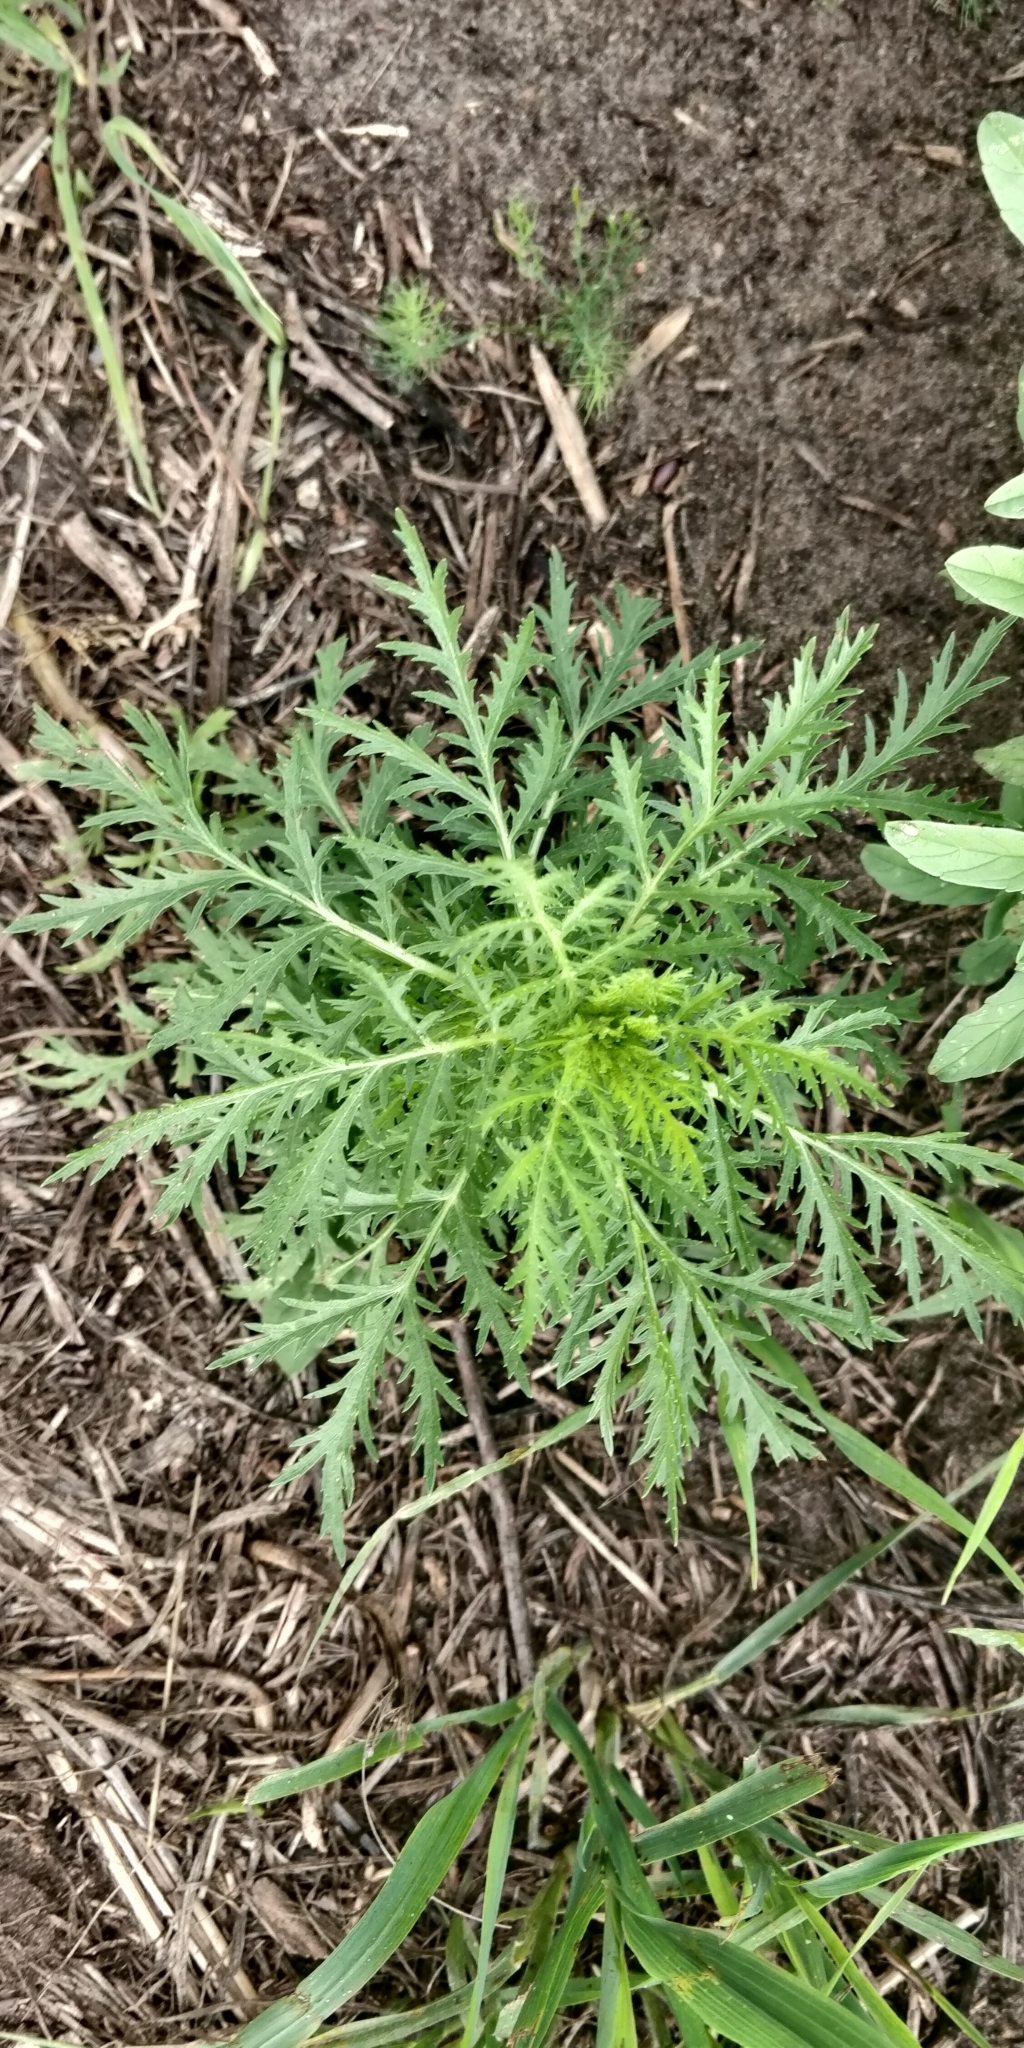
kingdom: Plantae
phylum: Tracheophyta
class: Magnoliopsida
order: Asterales
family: Asteraceae
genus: Artemisia
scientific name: Artemisia biennis
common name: Biennial wormwood
